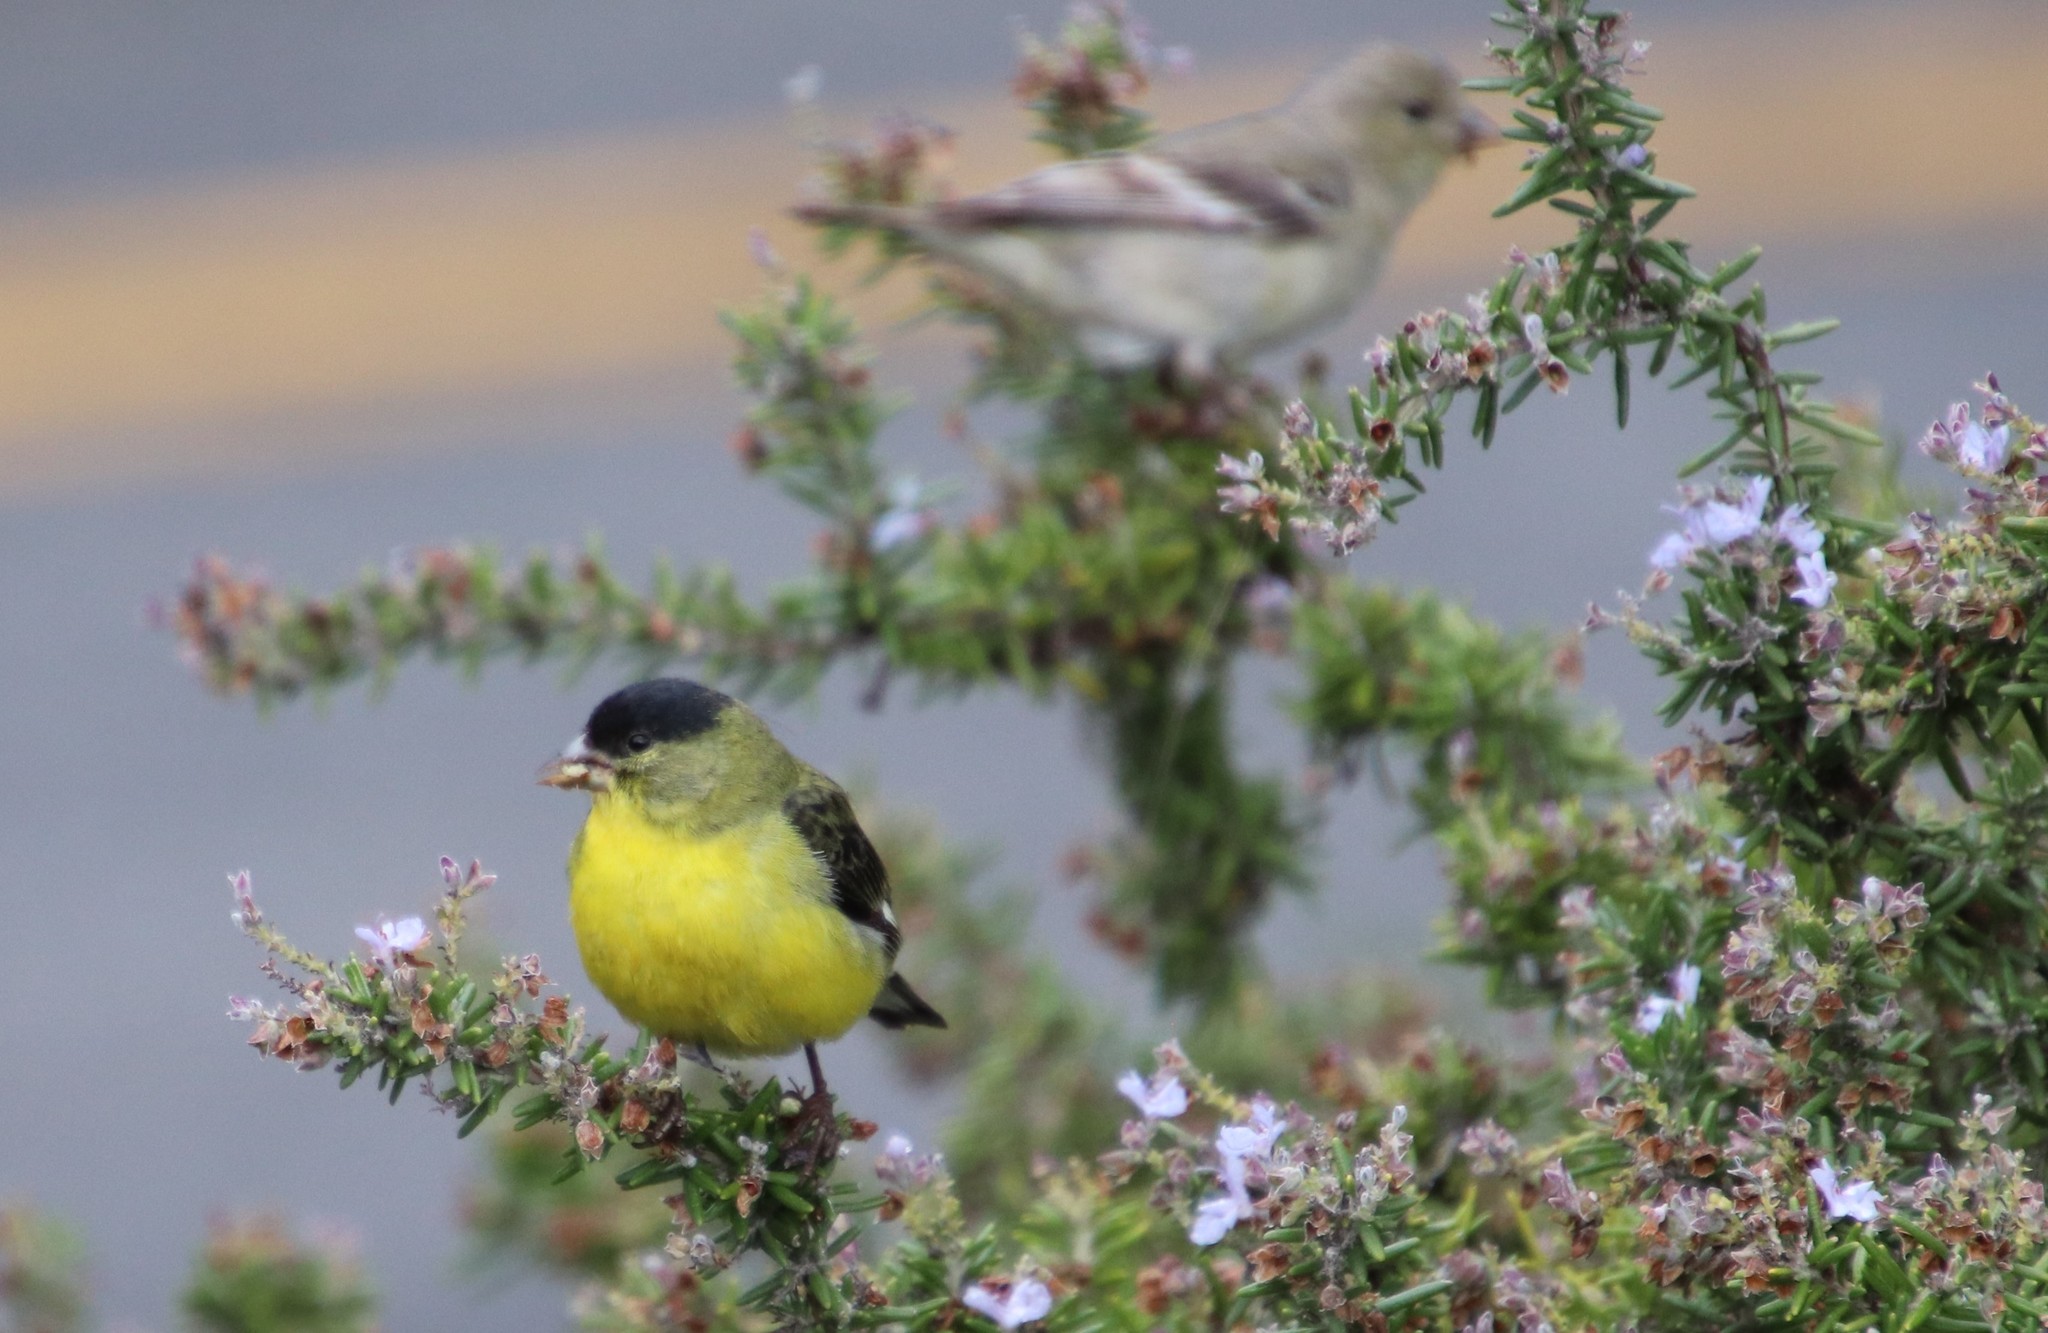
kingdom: Animalia
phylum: Chordata
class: Aves
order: Passeriformes
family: Fringillidae
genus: Spinus
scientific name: Spinus psaltria
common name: Lesser goldfinch
